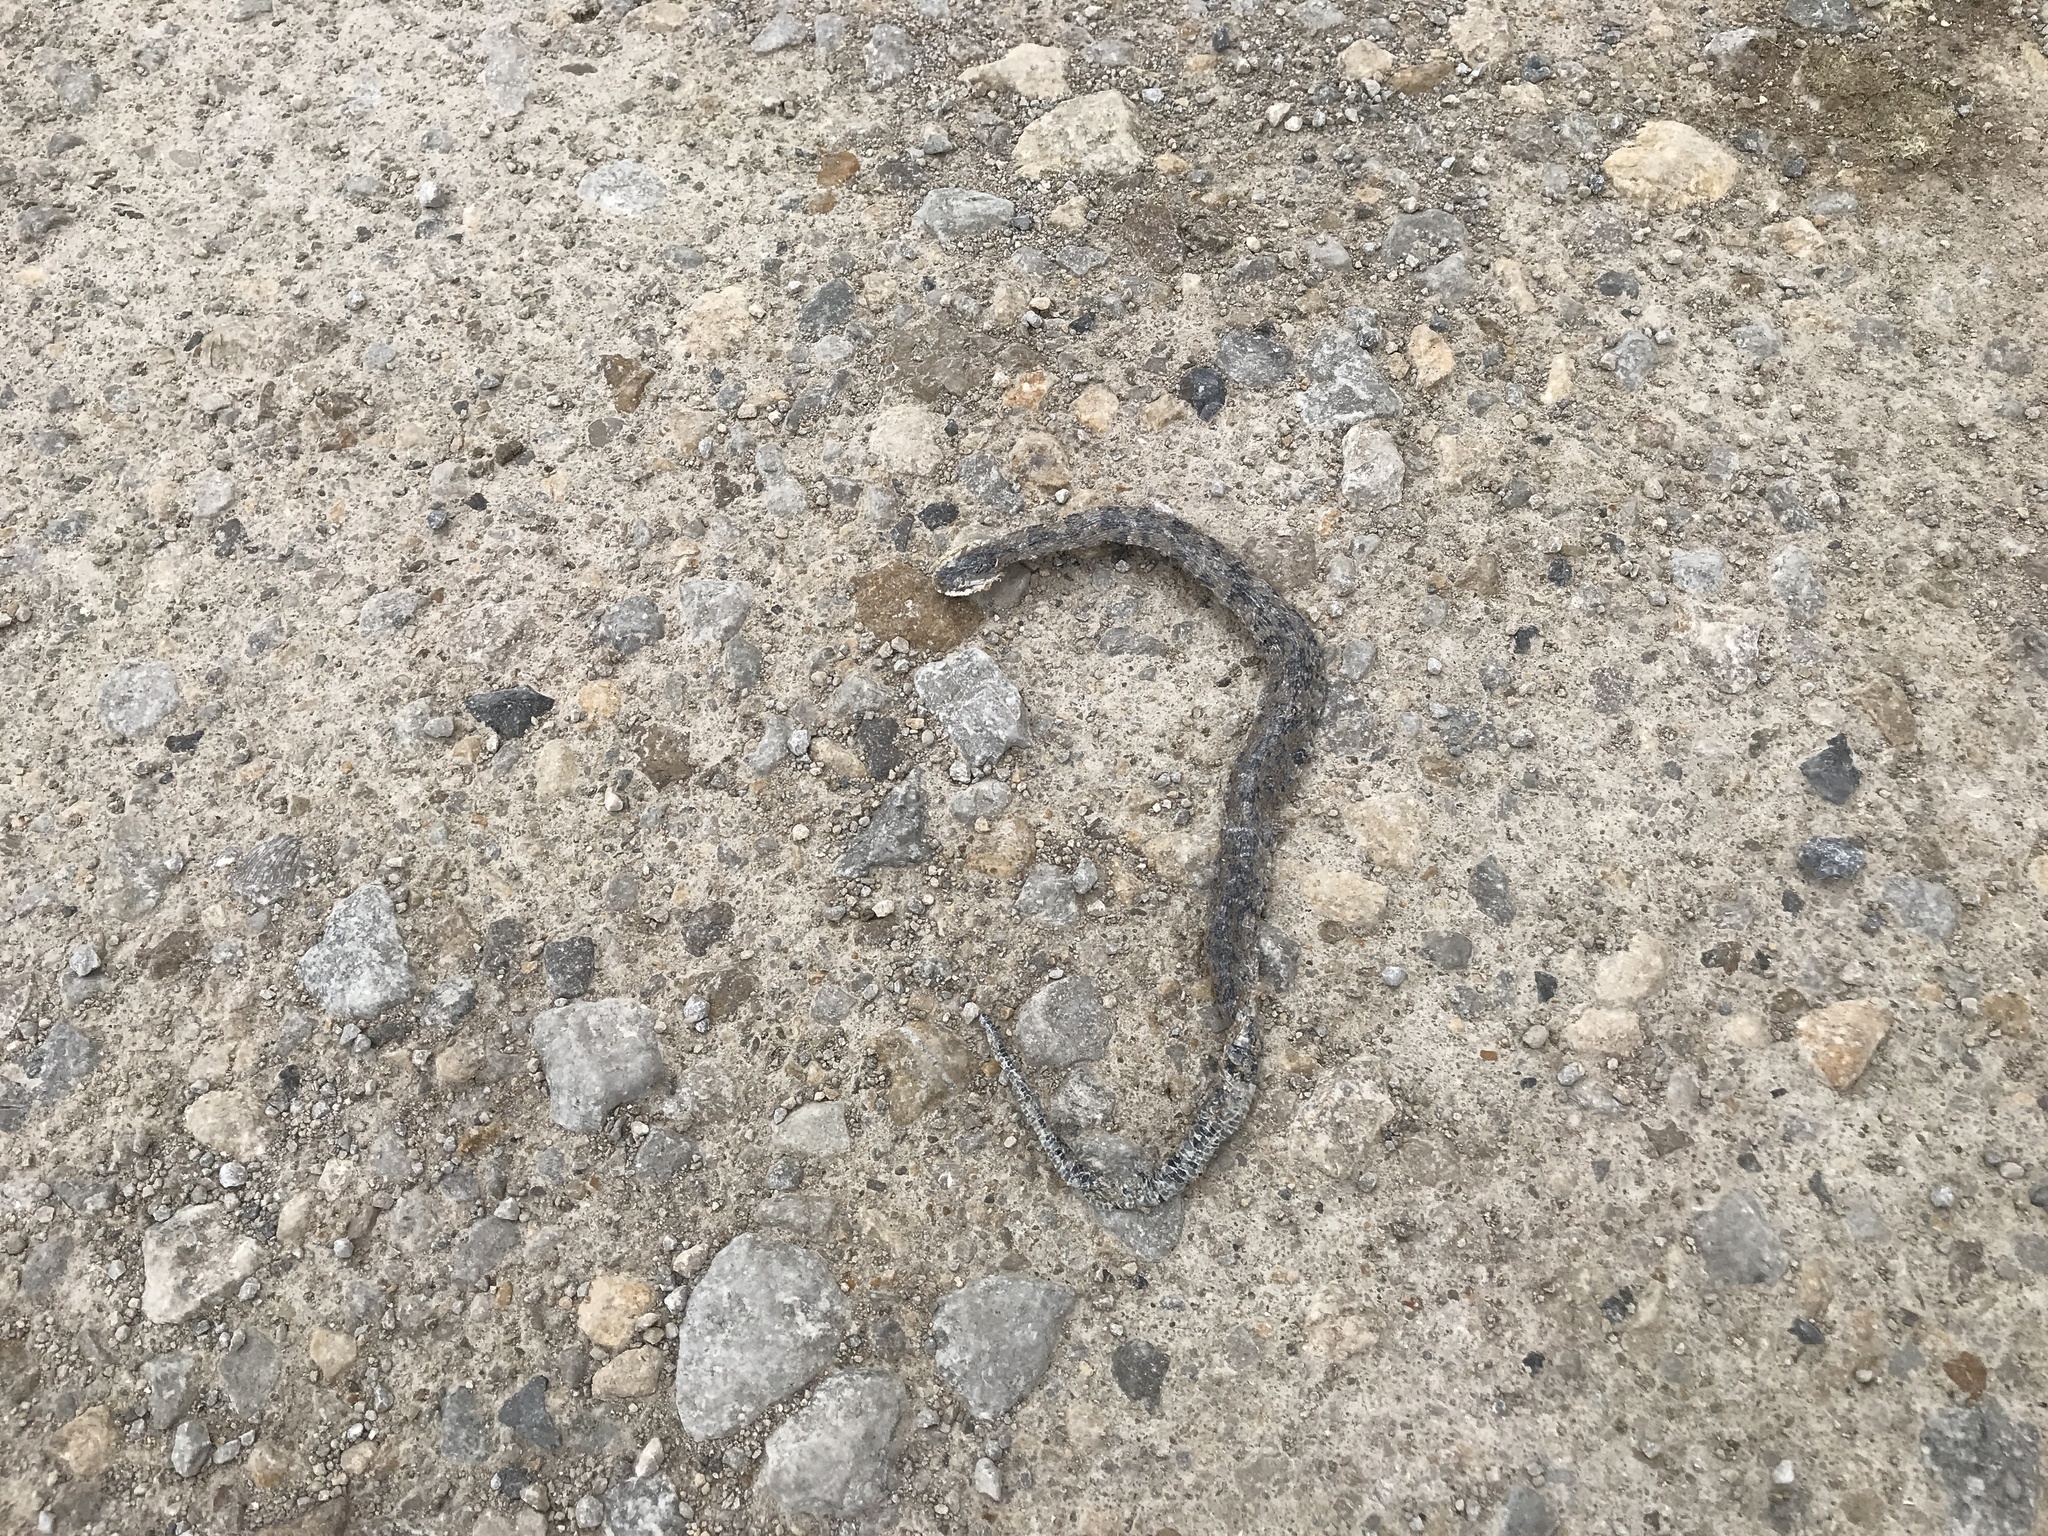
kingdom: Animalia
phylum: Chordata
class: Squamata
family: Colubridae
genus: Nerodia
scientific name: Nerodia sipedon
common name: Northern water snake
